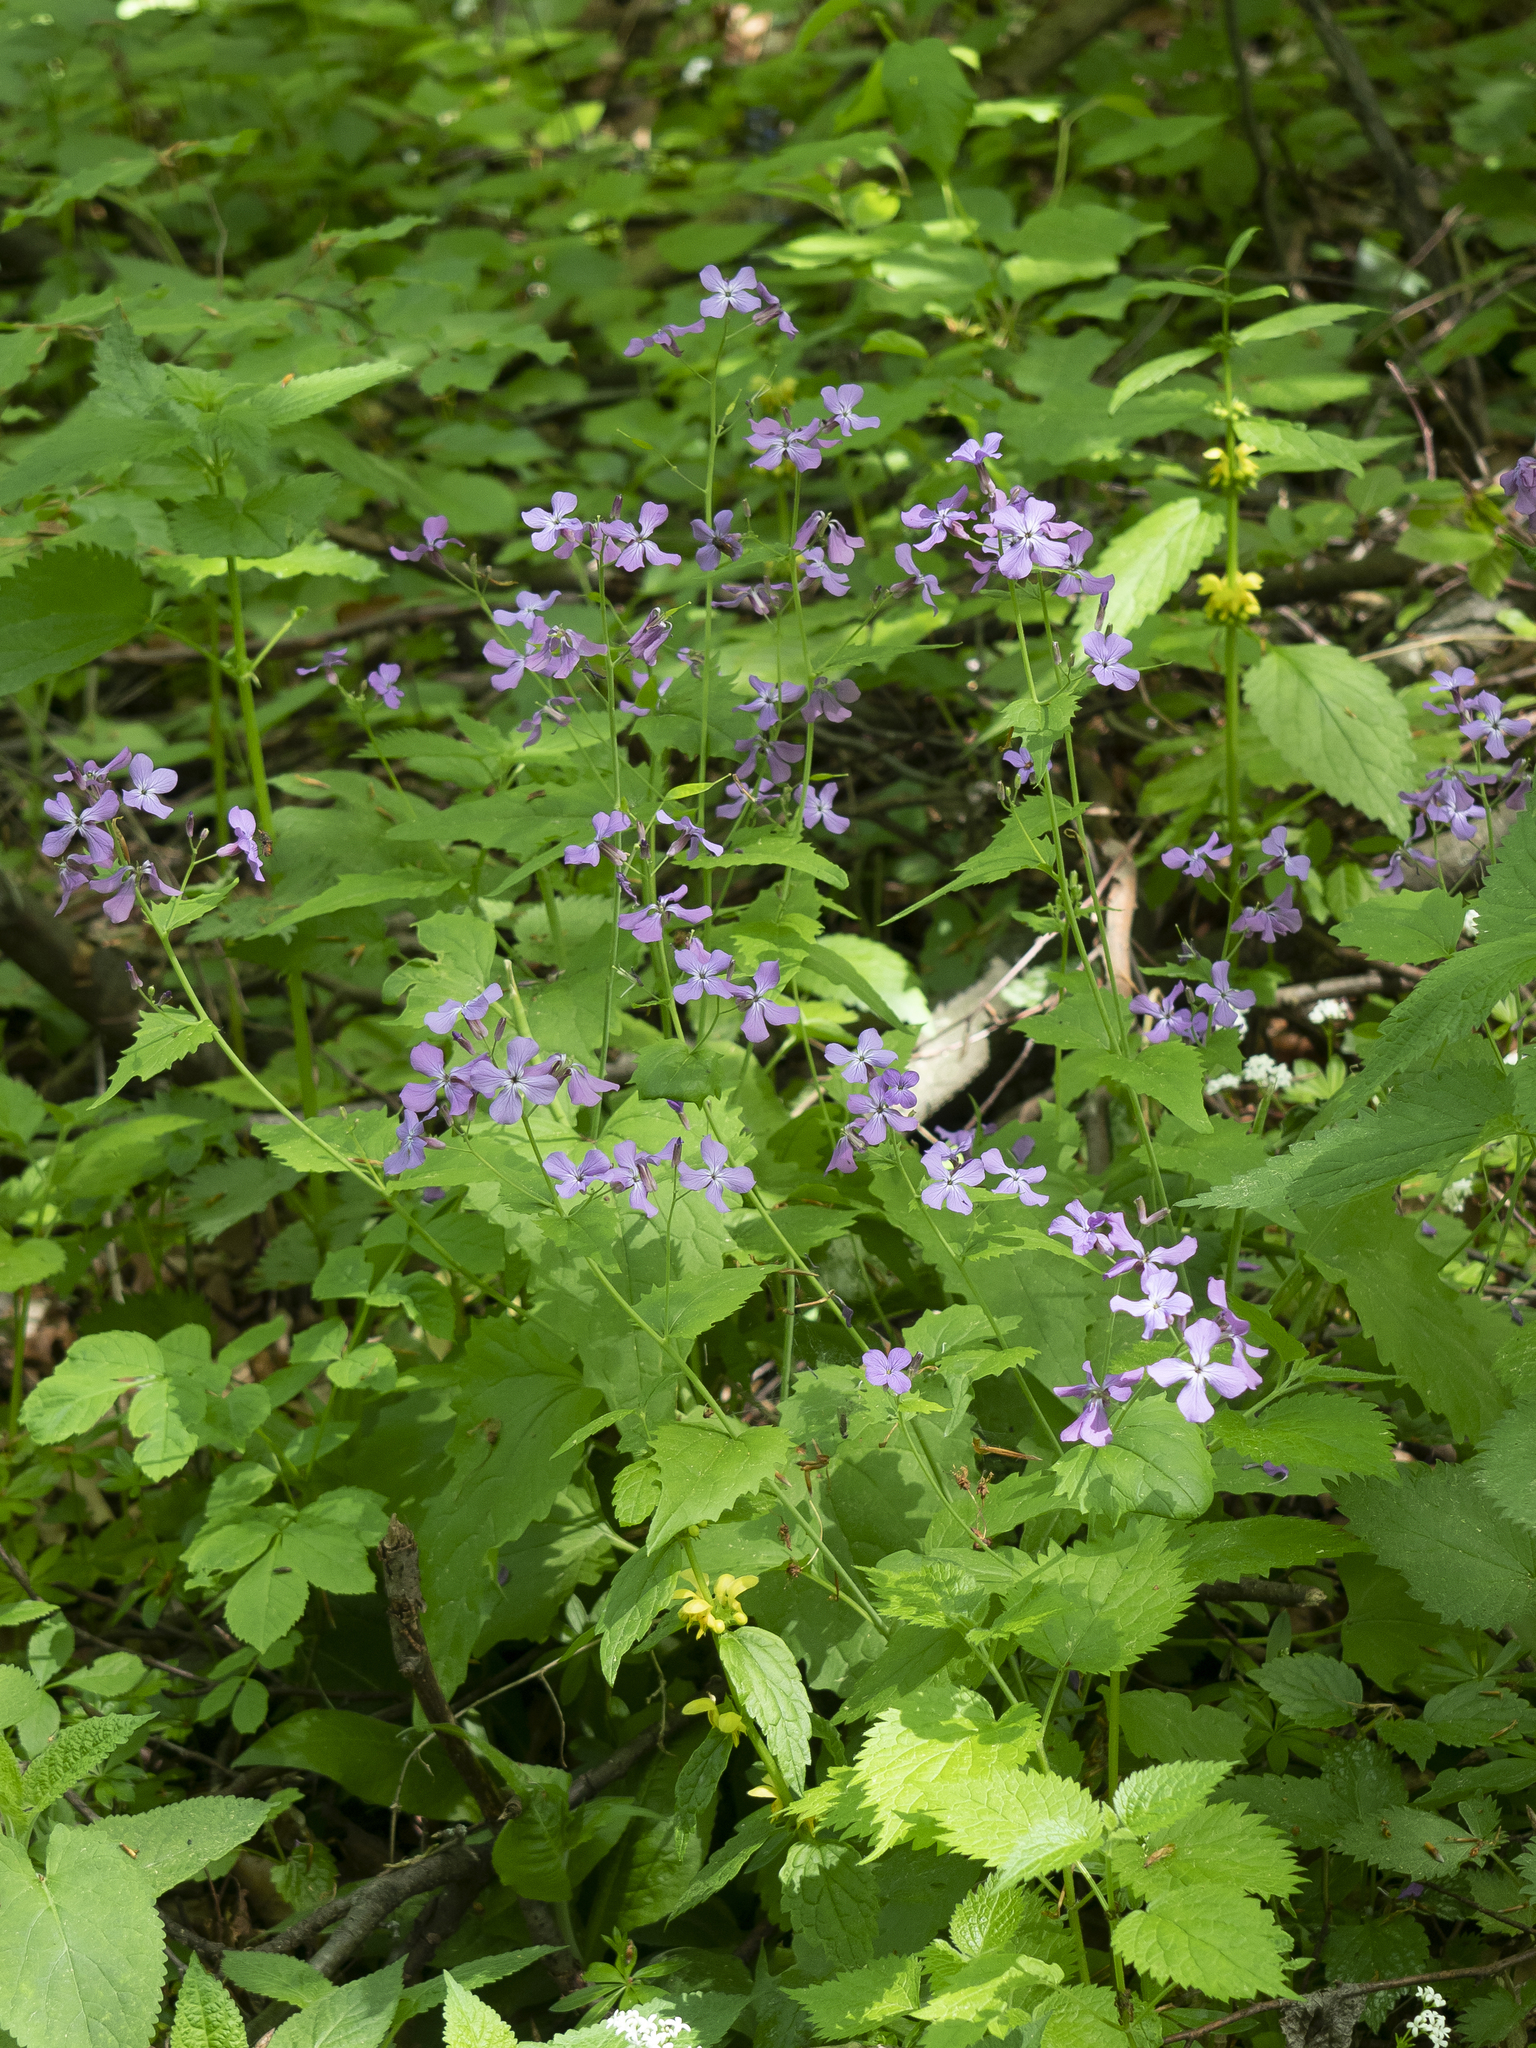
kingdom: Plantae
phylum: Tracheophyta
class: Magnoliopsida
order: Brassicales
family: Brassicaceae
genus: Lunaria
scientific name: Lunaria annua
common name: Honesty
